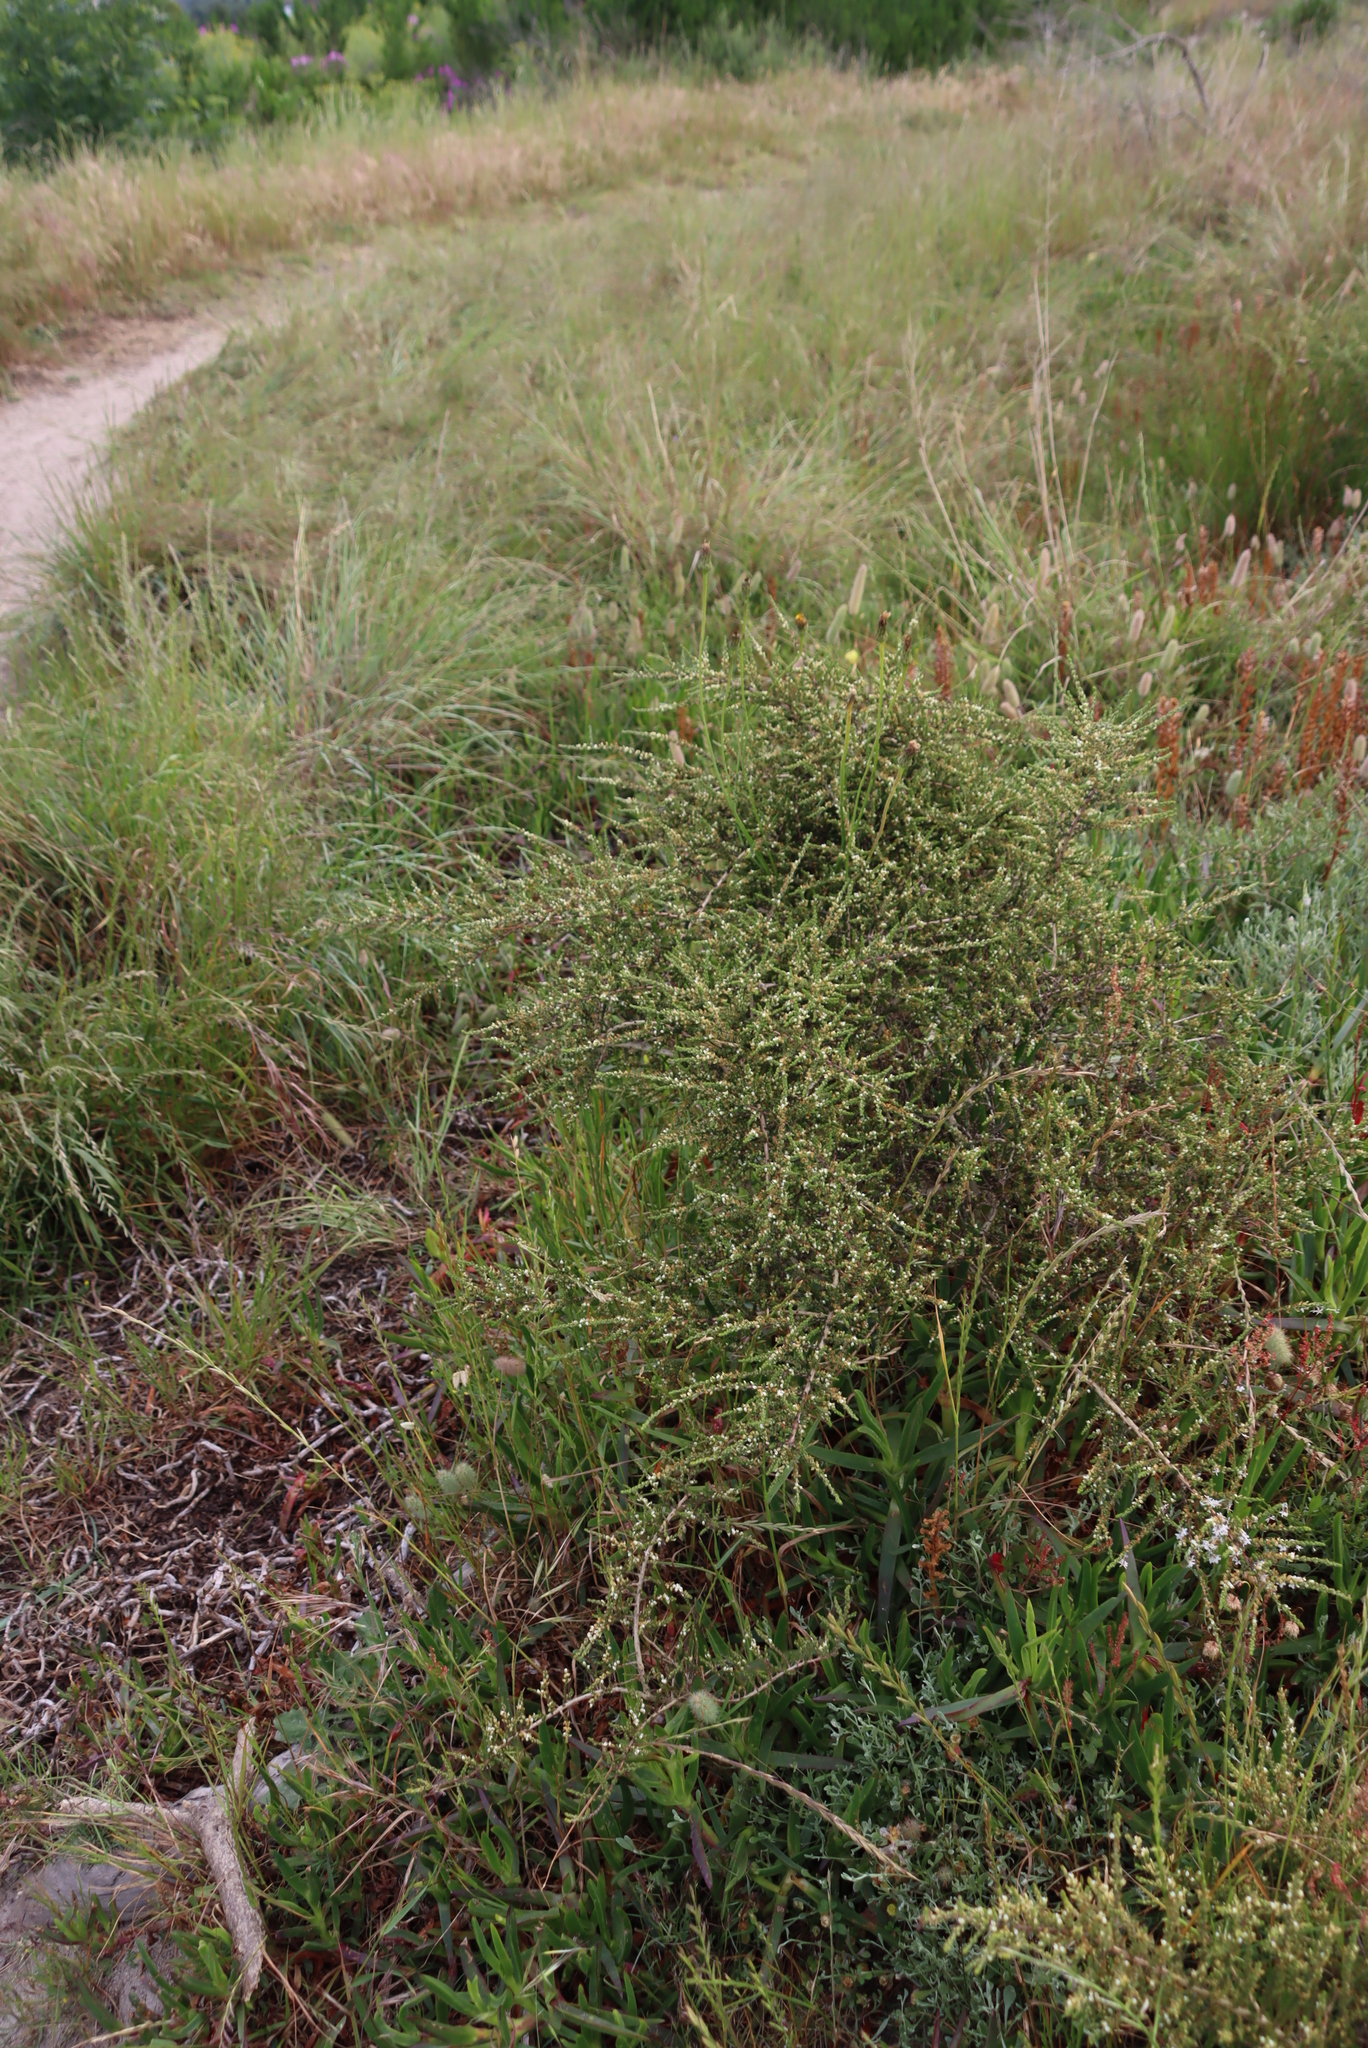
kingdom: Plantae
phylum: Tracheophyta
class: Magnoliopsida
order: Fabales
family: Fabaceae
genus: Aspalathus
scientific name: Aspalathus hispida
